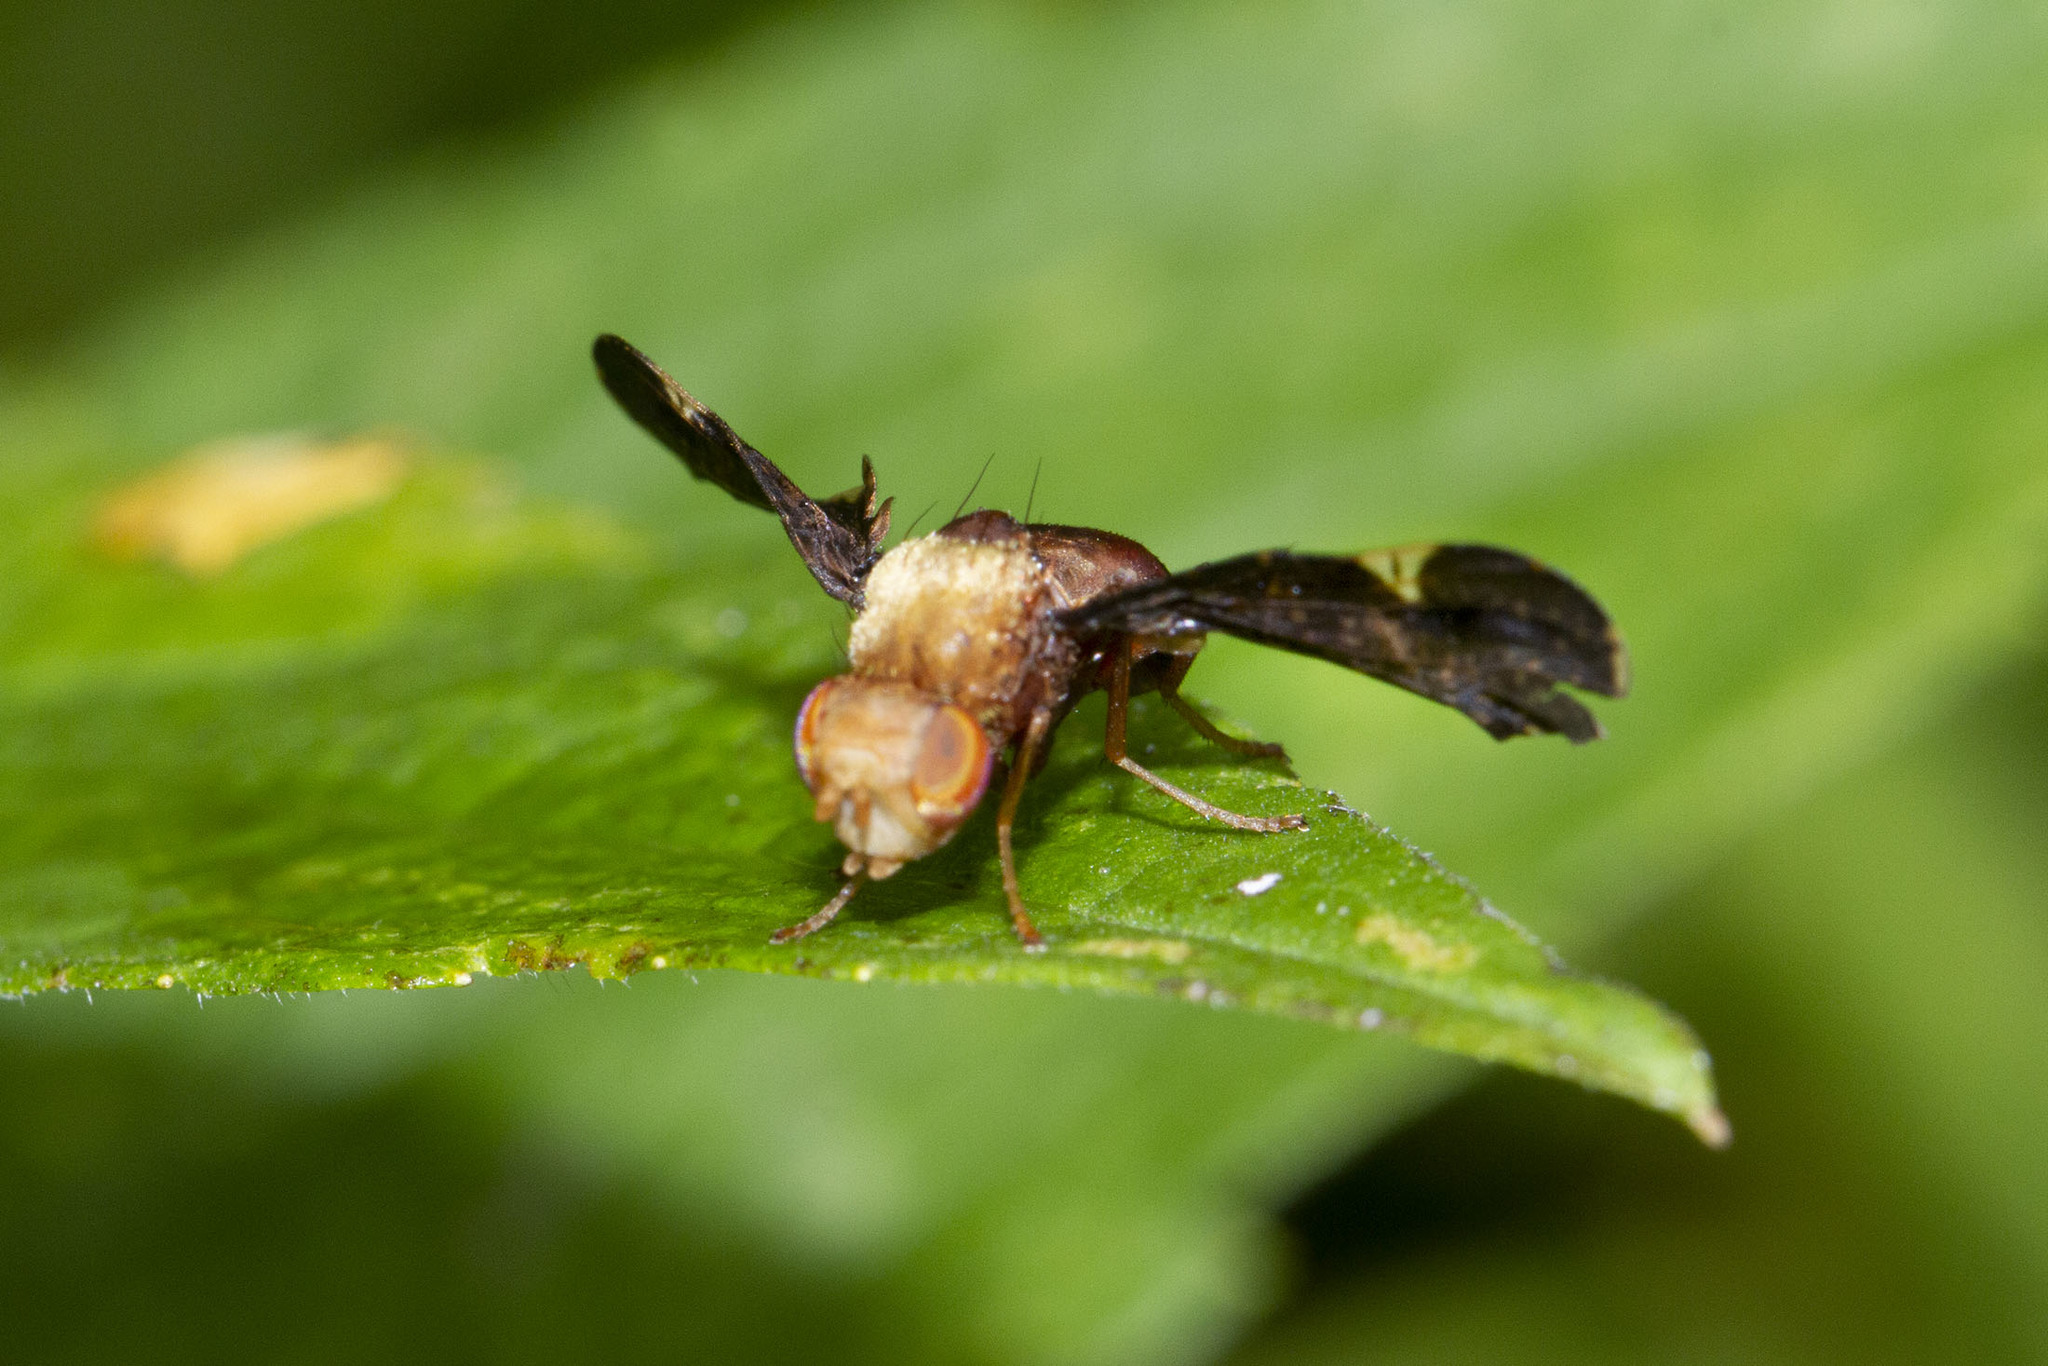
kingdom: Animalia
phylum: Arthropoda
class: Insecta
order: Diptera
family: Tephritidae
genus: Eurosta
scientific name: Eurosta comma
